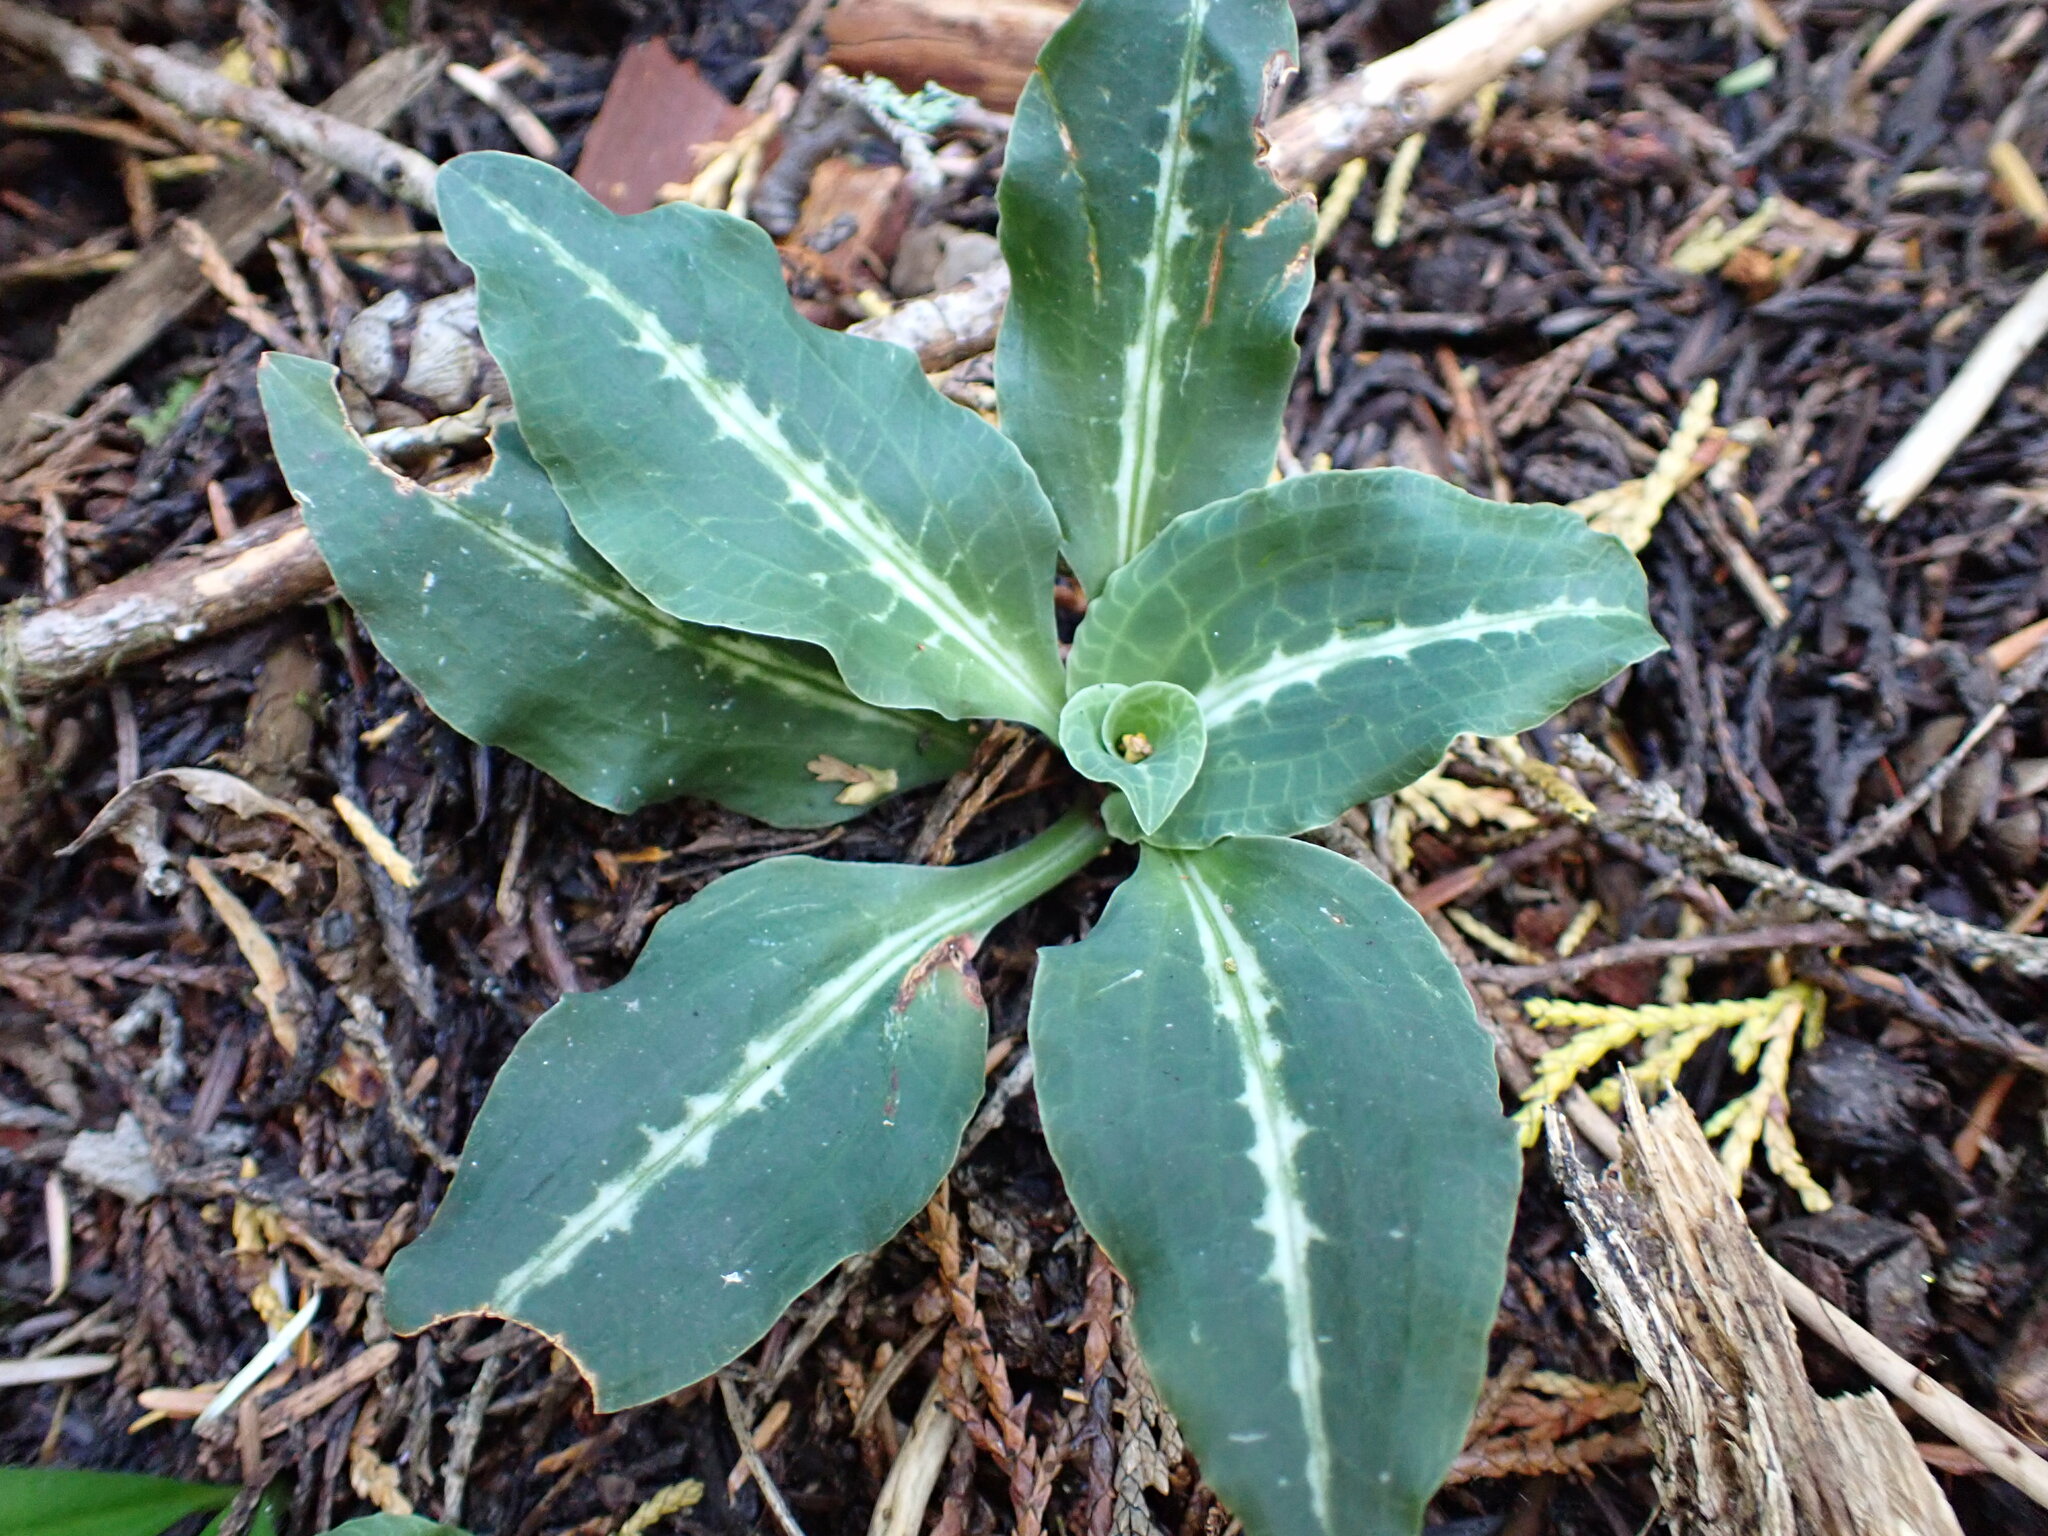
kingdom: Plantae
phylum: Tracheophyta
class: Liliopsida
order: Asparagales
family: Orchidaceae
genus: Goodyera
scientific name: Goodyera oblongifolia
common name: Giant rattlesnake-plantain
